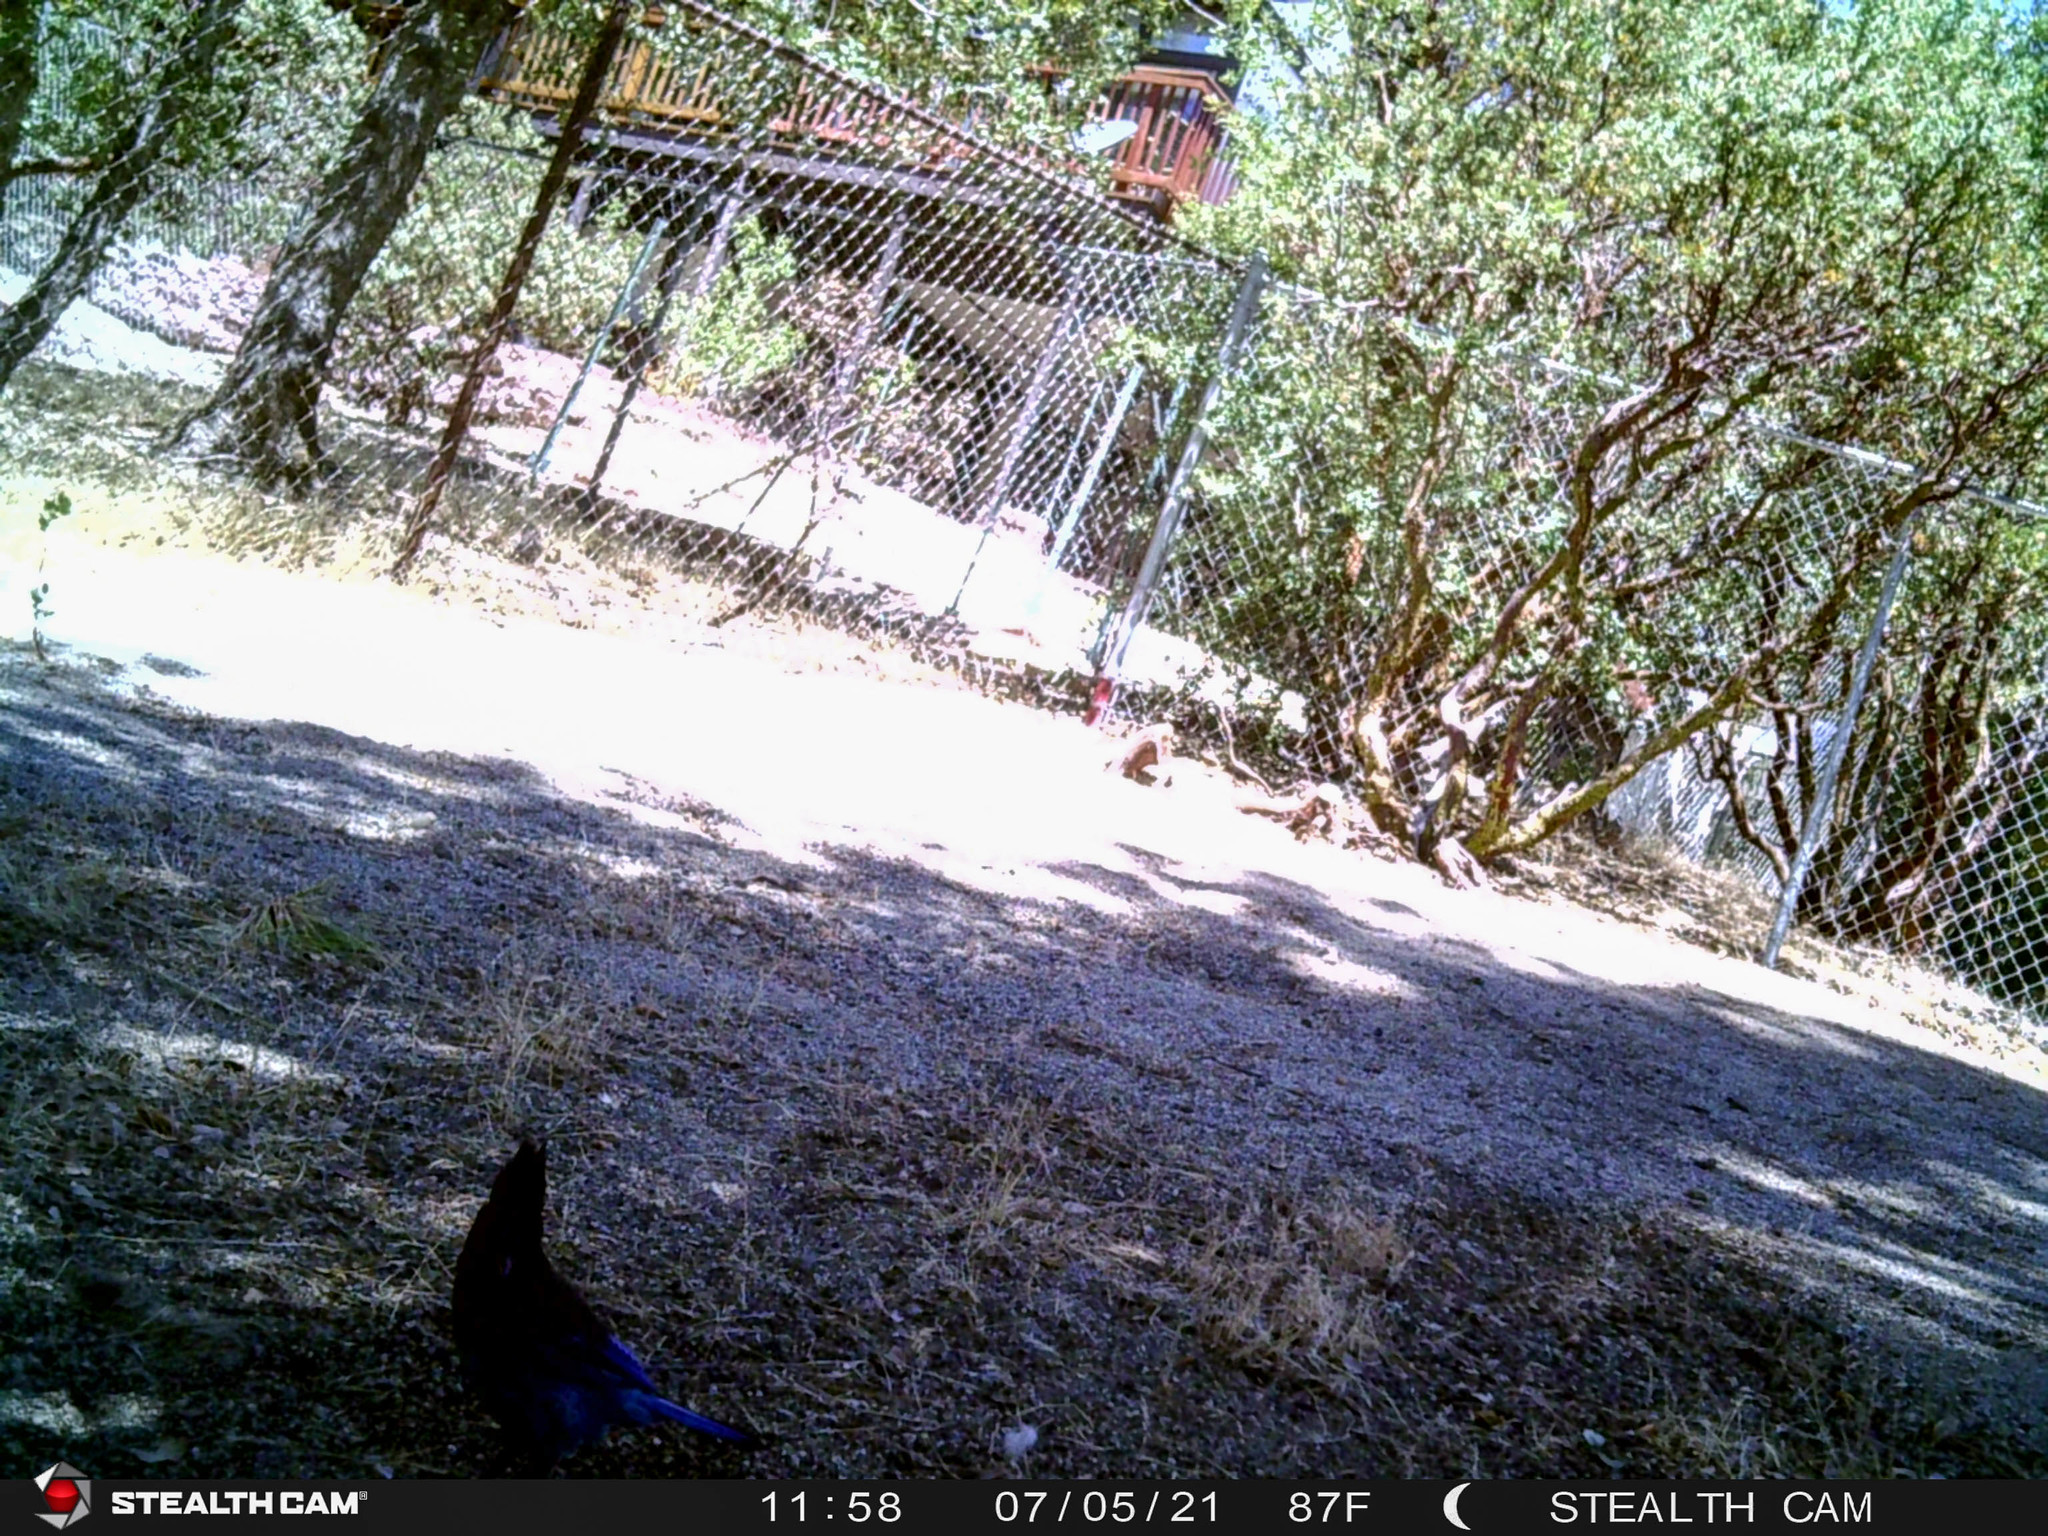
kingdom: Animalia
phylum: Chordata
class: Aves
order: Passeriformes
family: Corvidae
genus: Cyanocitta
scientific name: Cyanocitta stelleri
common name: Steller's jay
